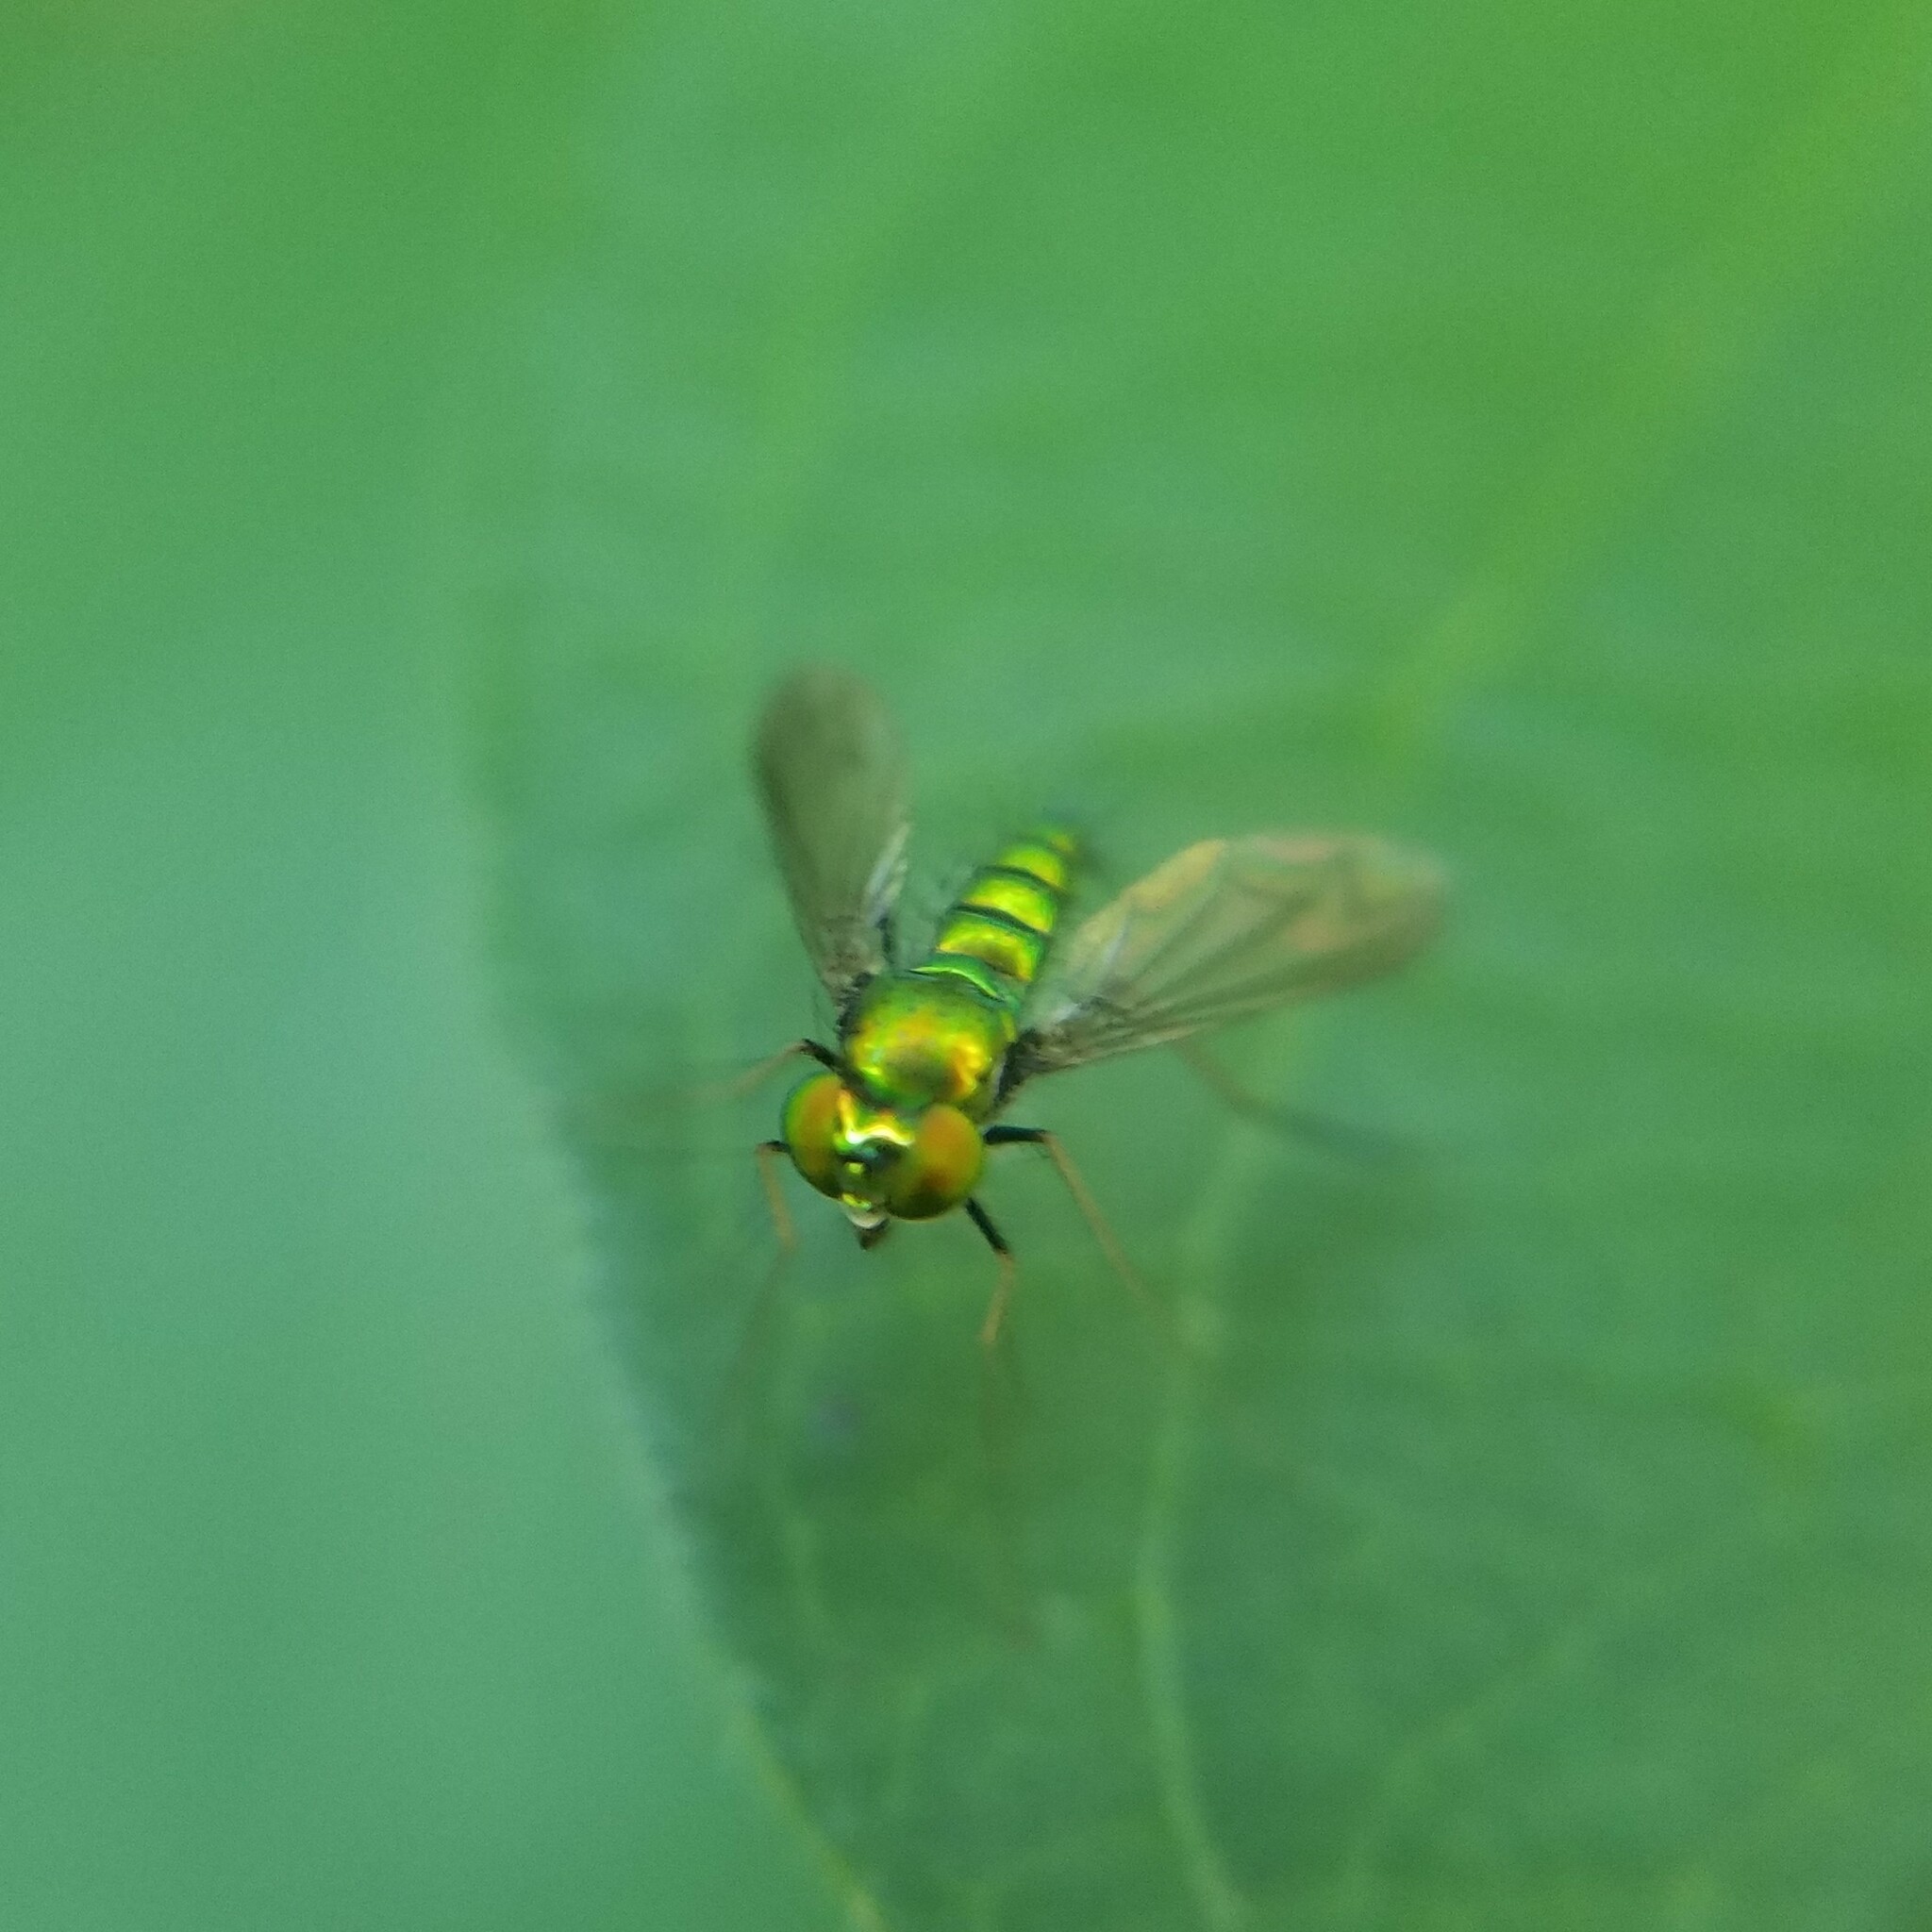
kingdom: Animalia
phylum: Arthropoda
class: Insecta
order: Diptera
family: Dolichopodidae
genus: Condylostylus
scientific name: Condylostylus comatus
